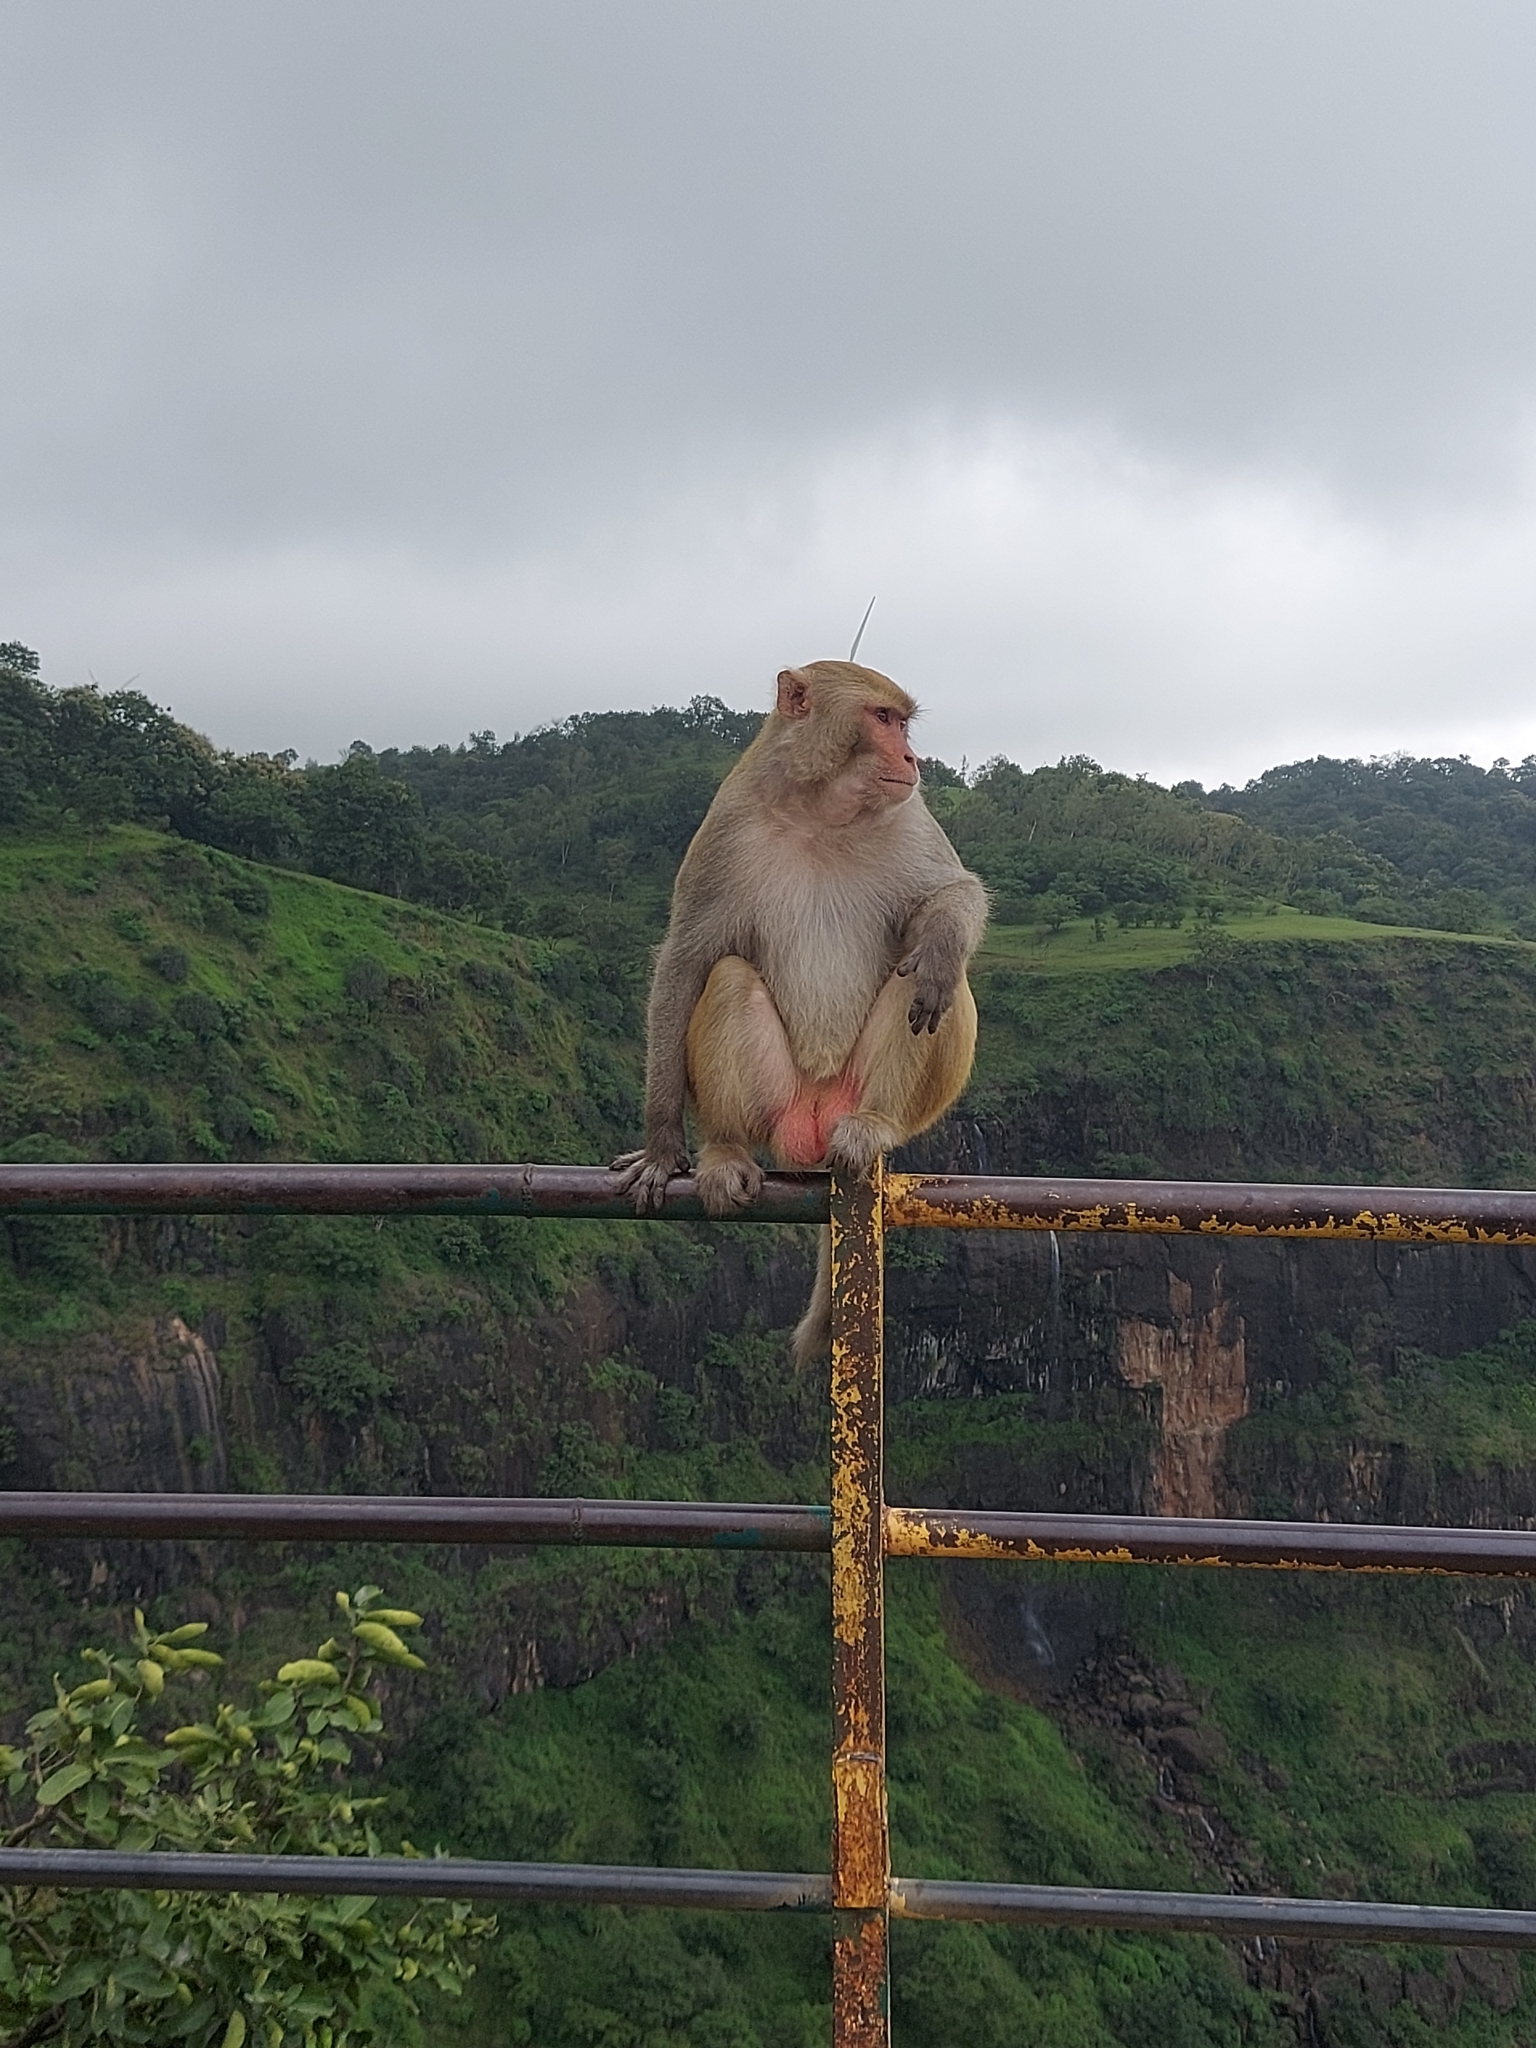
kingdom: Animalia
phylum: Chordata
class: Mammalia
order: Primates
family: Cercopithecidae
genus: Macaca
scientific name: Macaca mulatta
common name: Rhesus monkey
